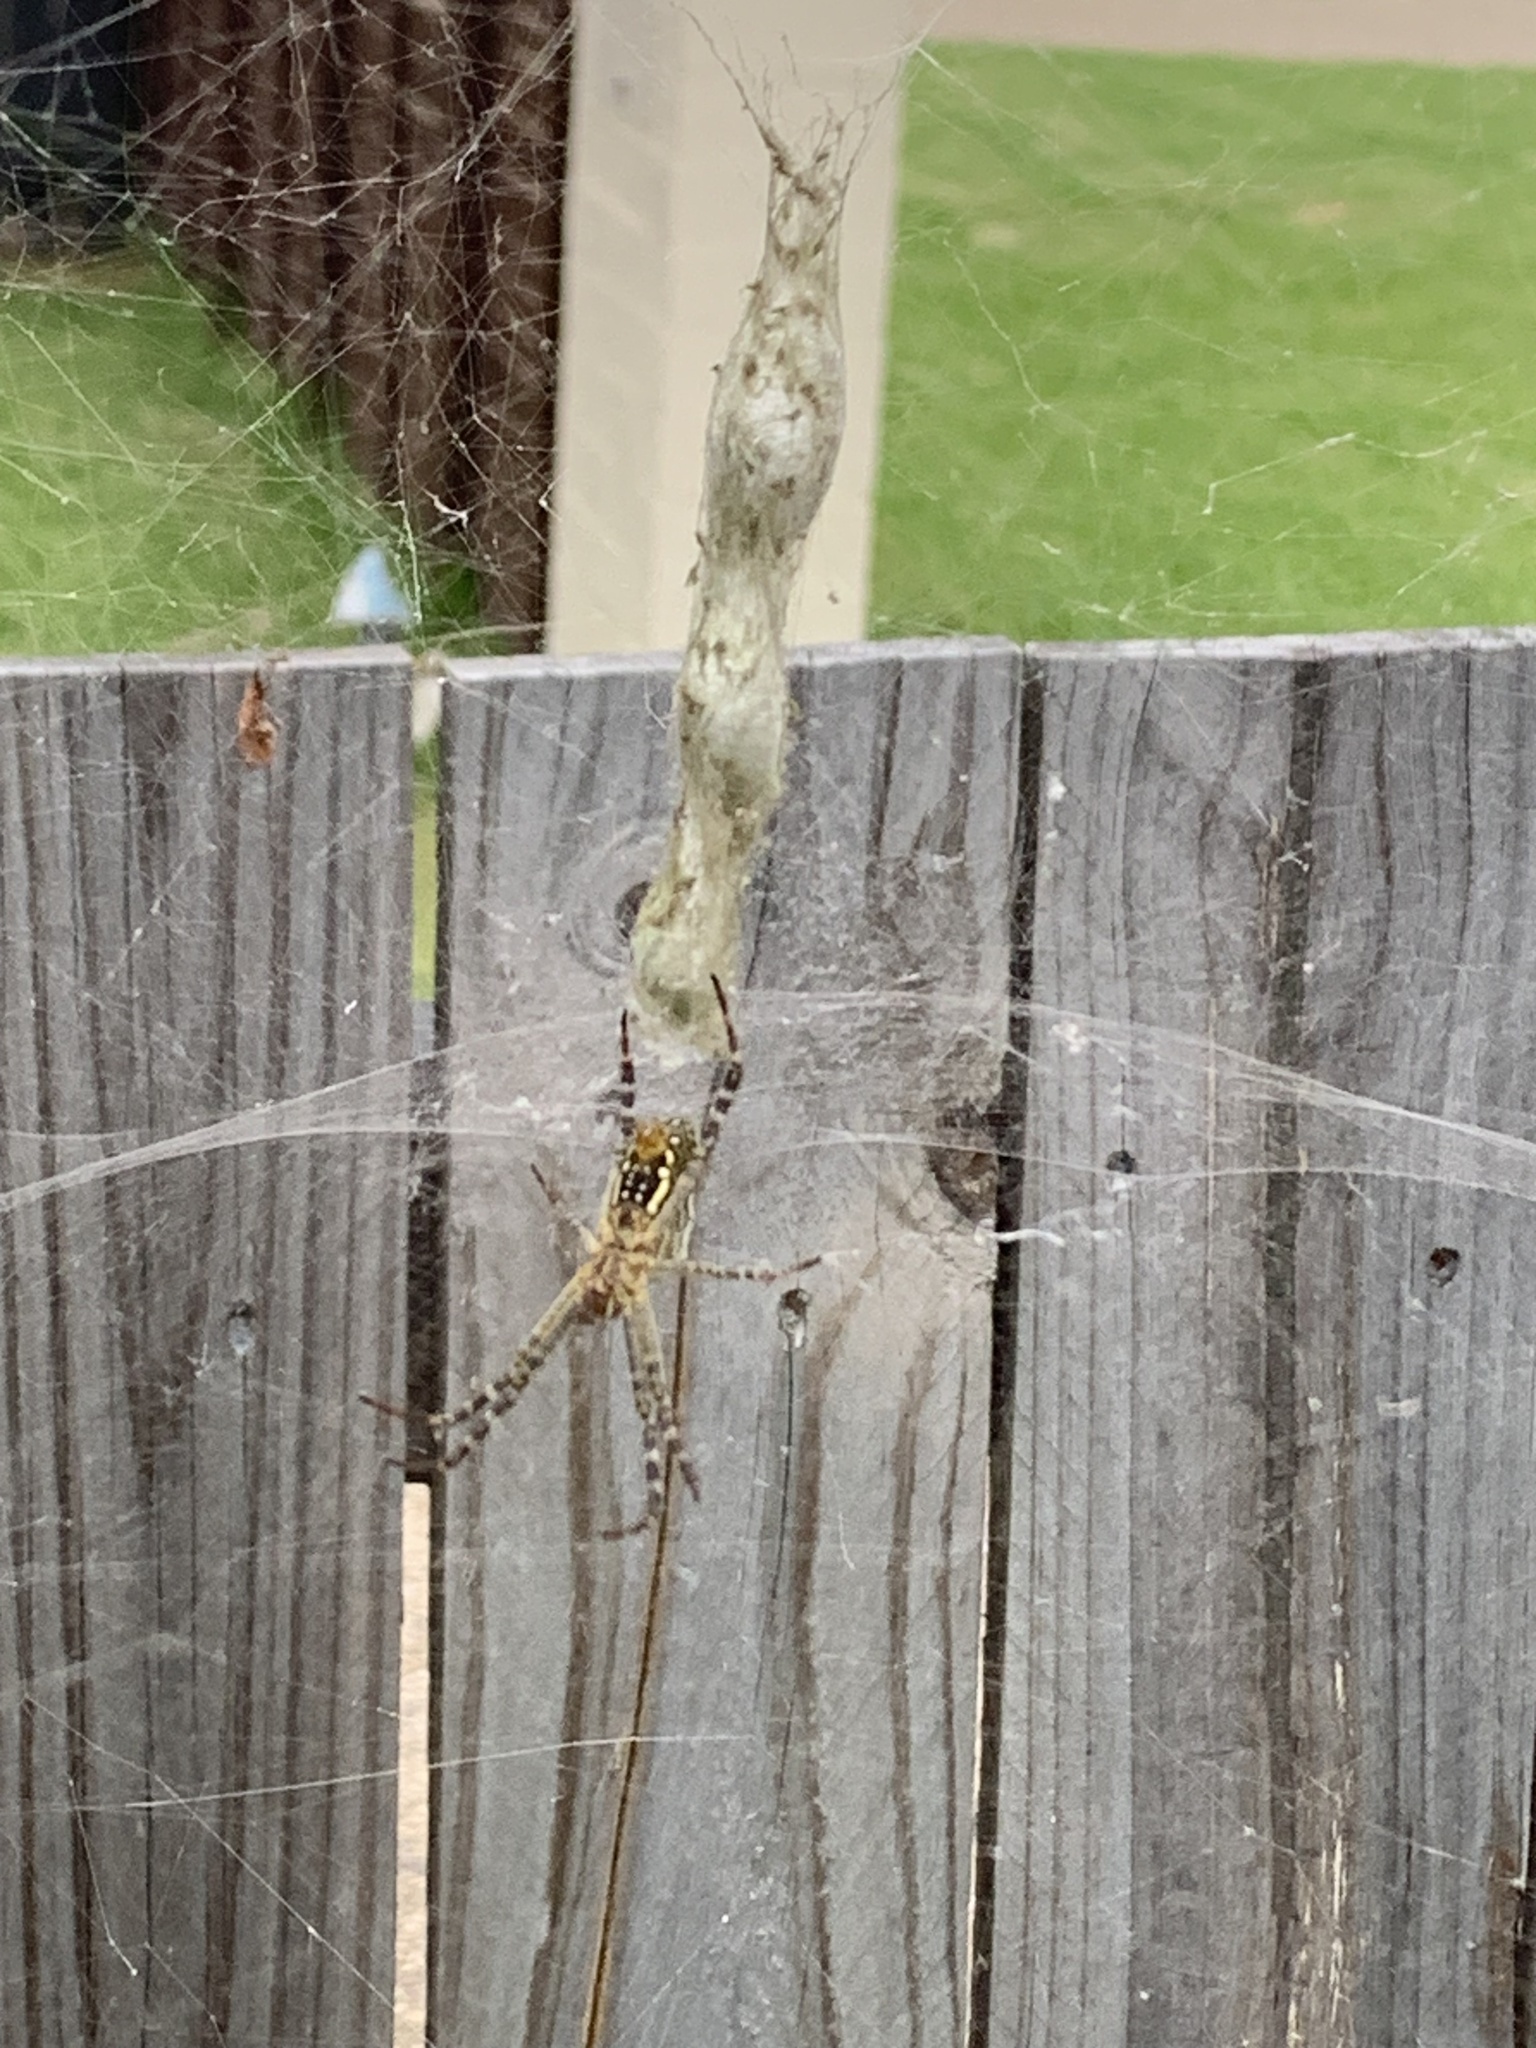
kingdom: Animalia
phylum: Arthropoda
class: Arachnida
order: Araneae
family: Araneidae
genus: Argiope
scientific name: Argiope trifasciata
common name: Banded garden spider
